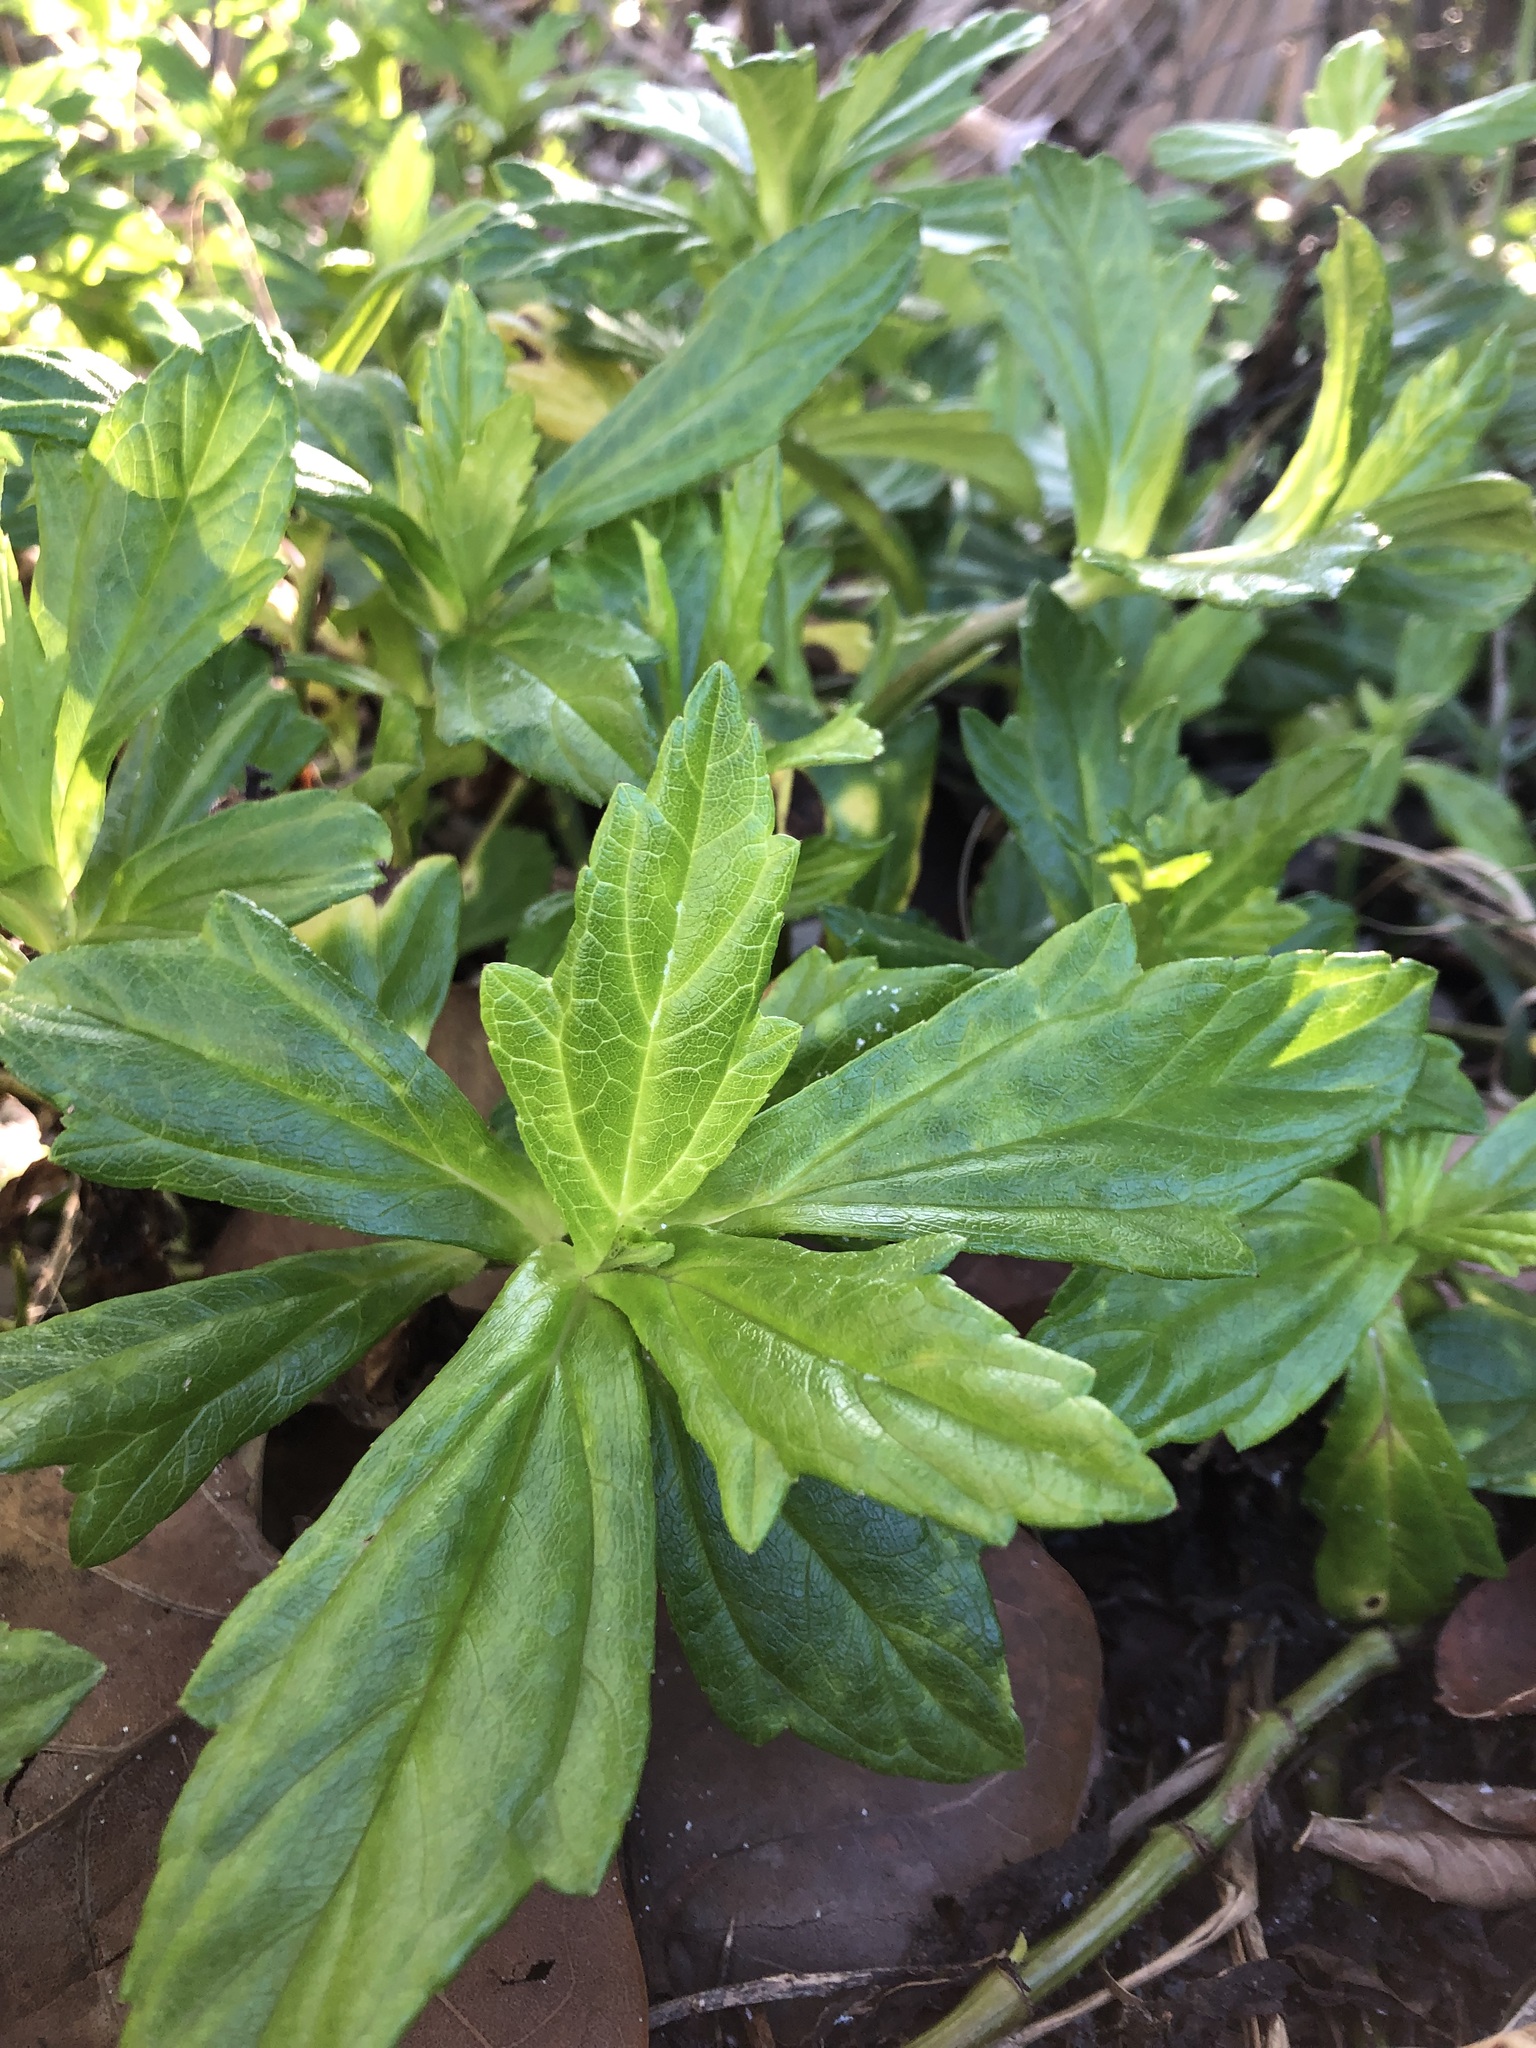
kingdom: Plantae
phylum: Tracheophyta
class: Magnoliopsida
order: Asterales
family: Asteraceae
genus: Sphagneticola
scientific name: Sphagneticola trilobata
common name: Bay biscayne creeping-oxeye
